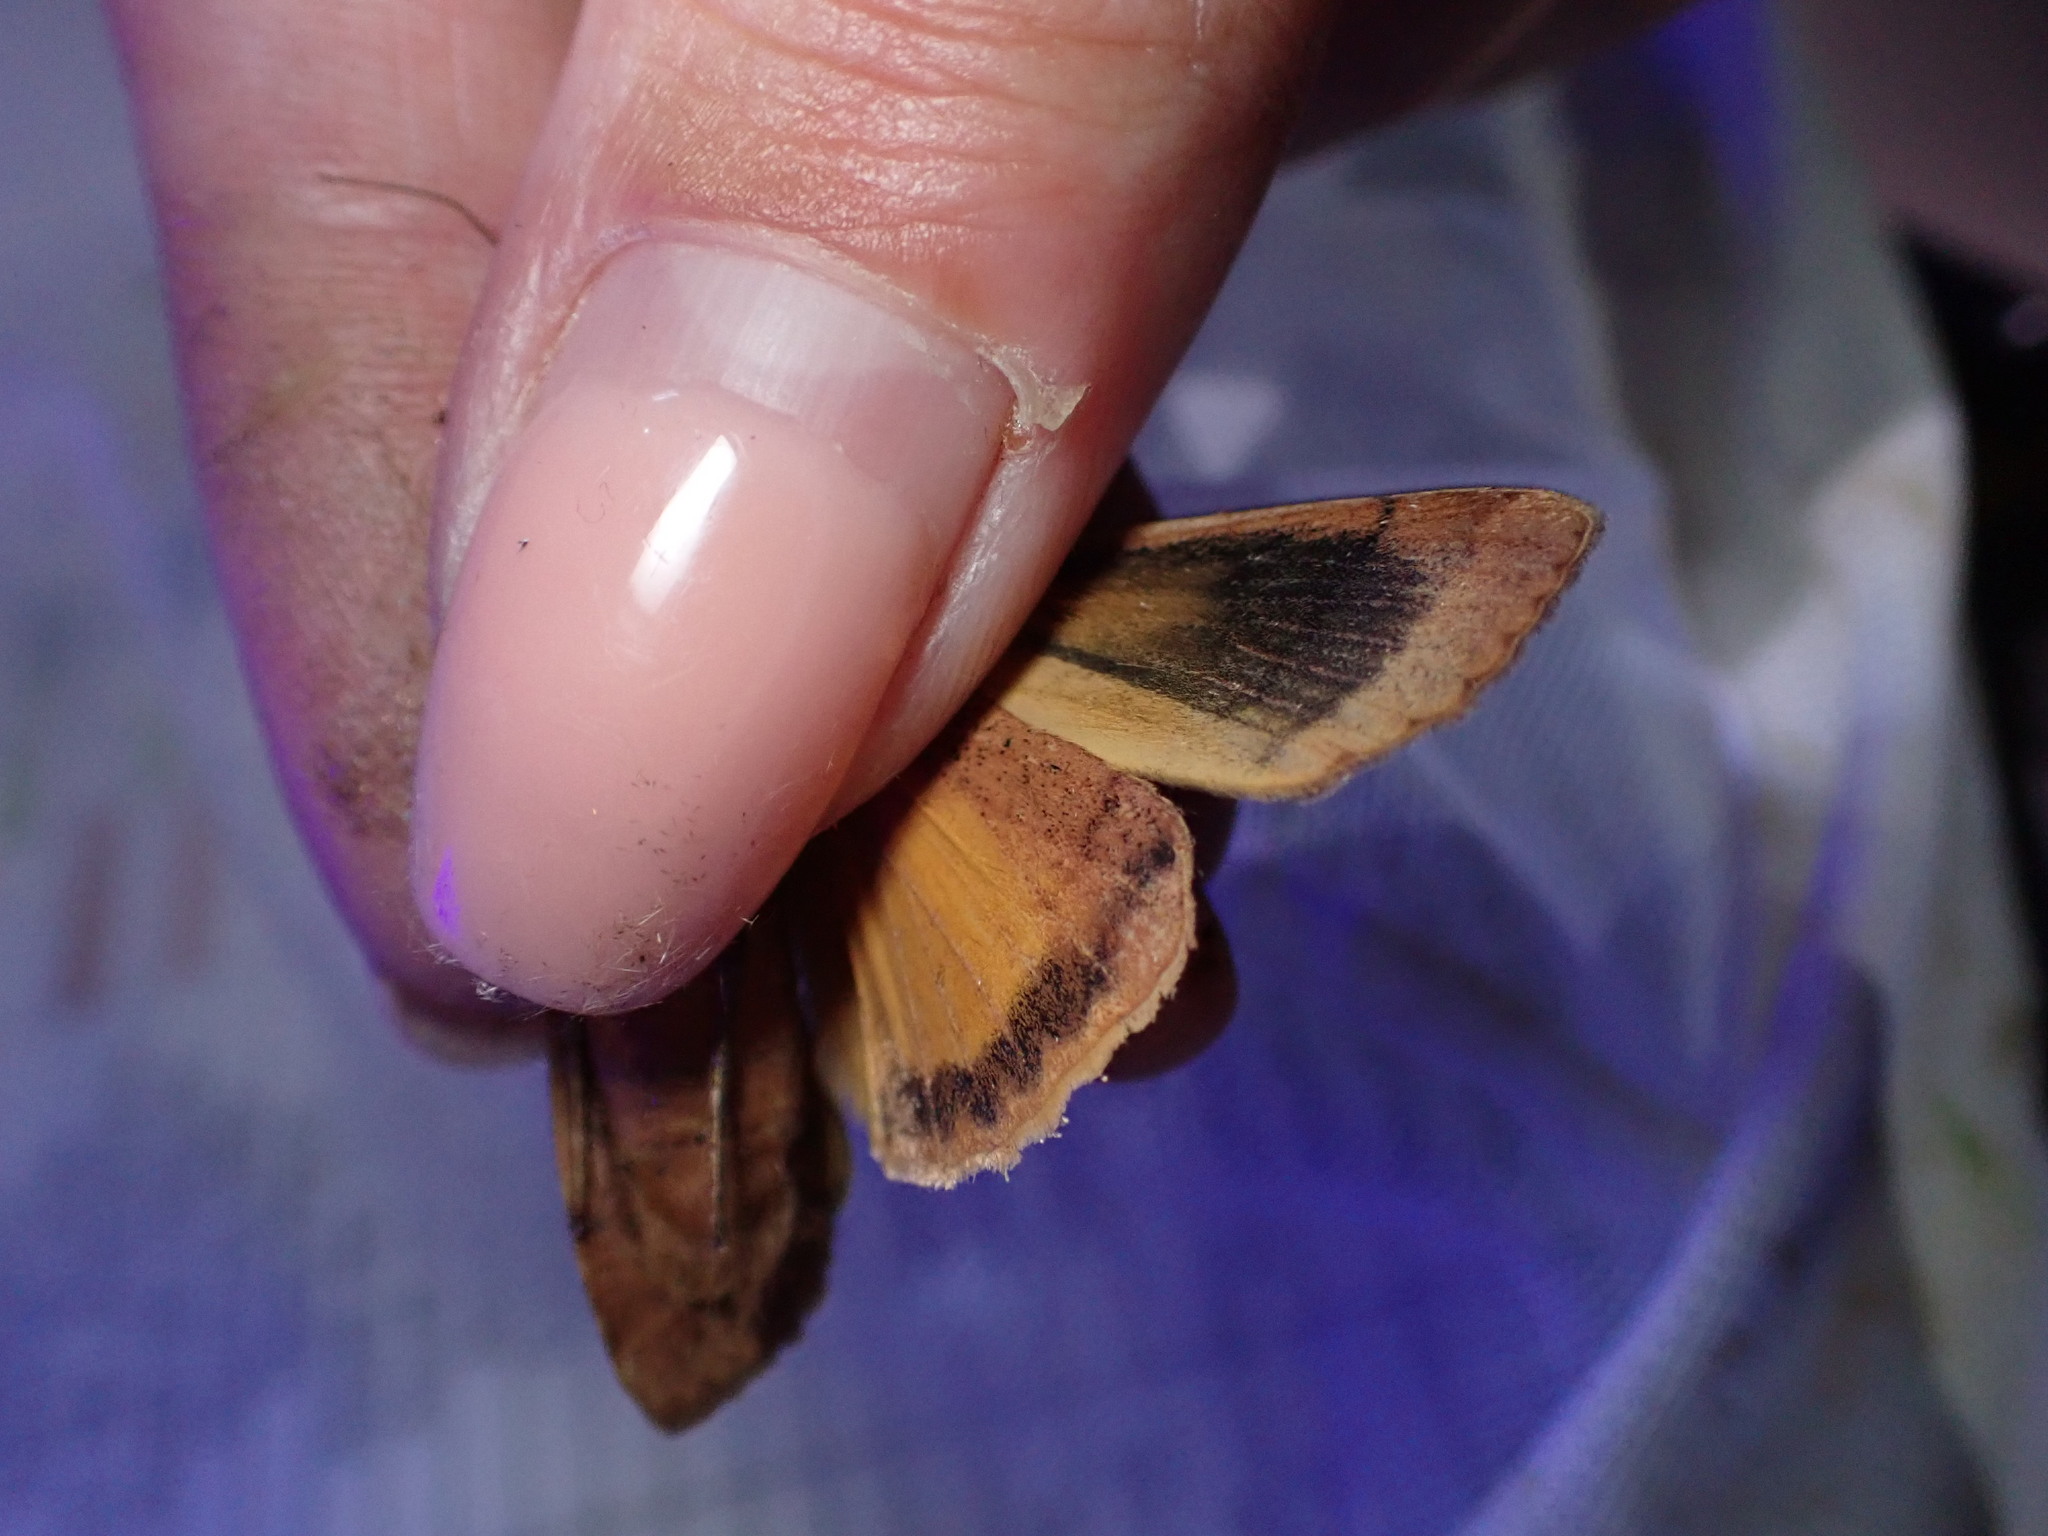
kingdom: Animalia
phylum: Arthropoda
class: Insecta
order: Lepidoptera
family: Noctuidae
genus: Noctua
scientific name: Noctua pronuba
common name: Large yellow underwing
